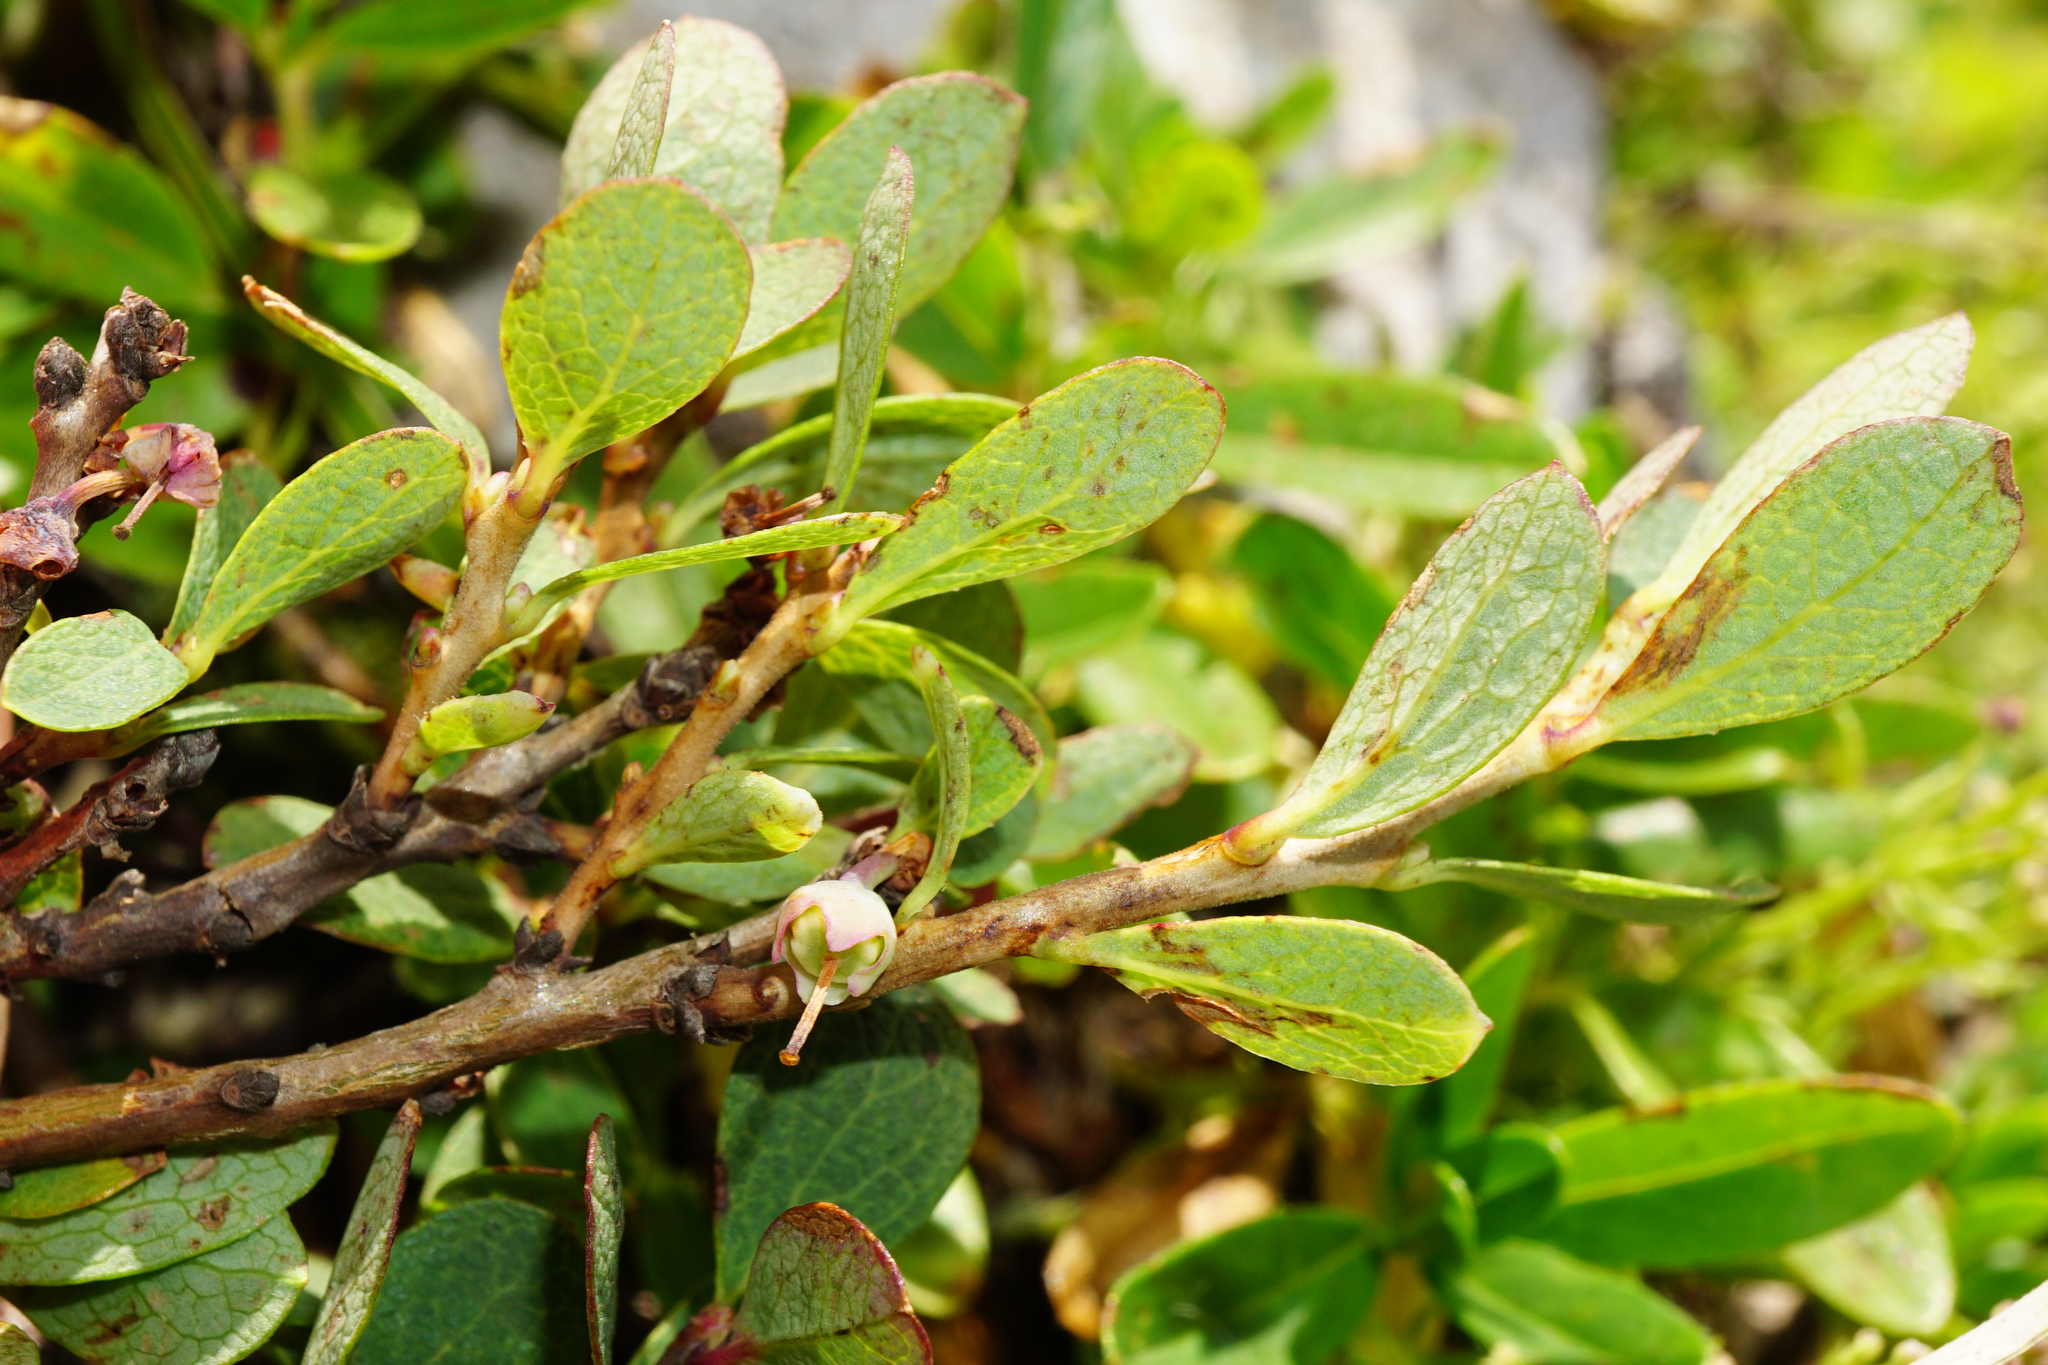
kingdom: Plantae
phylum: Tracheophyta
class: Magnoliopsida
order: Ericales
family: Ericaceae
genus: Vaccinium
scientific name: Vaccinium uliginosum
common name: Bog bilberry
